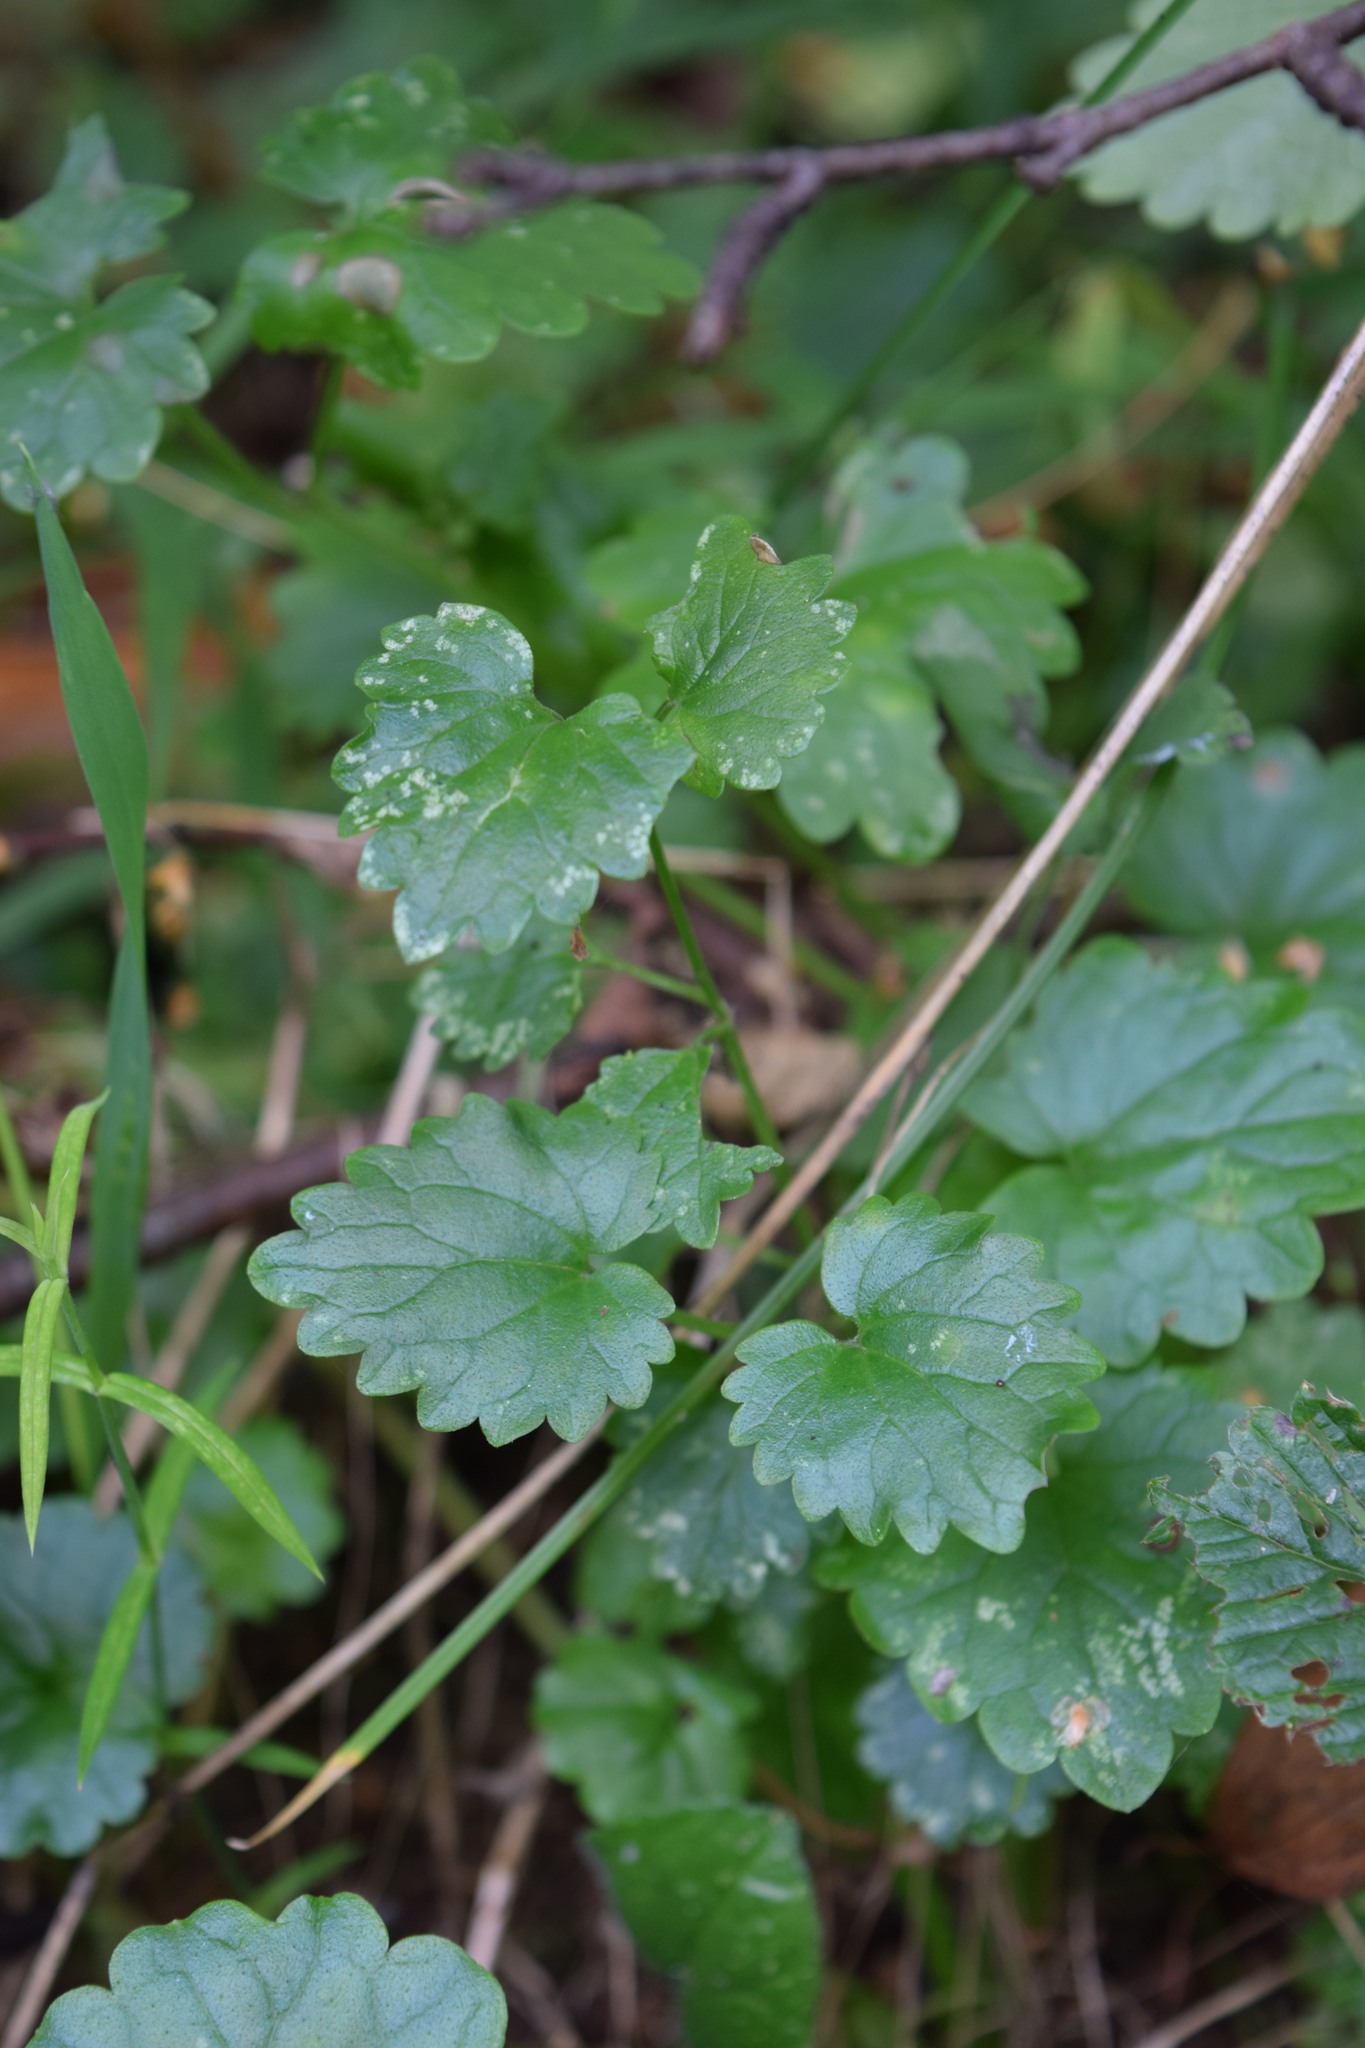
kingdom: Plantae
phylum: Tracheophyta
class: Magnoliopsida
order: Lamiales
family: Lamiaceae
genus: Glechoma
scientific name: Glechoma hederacea
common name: Ground ivy
